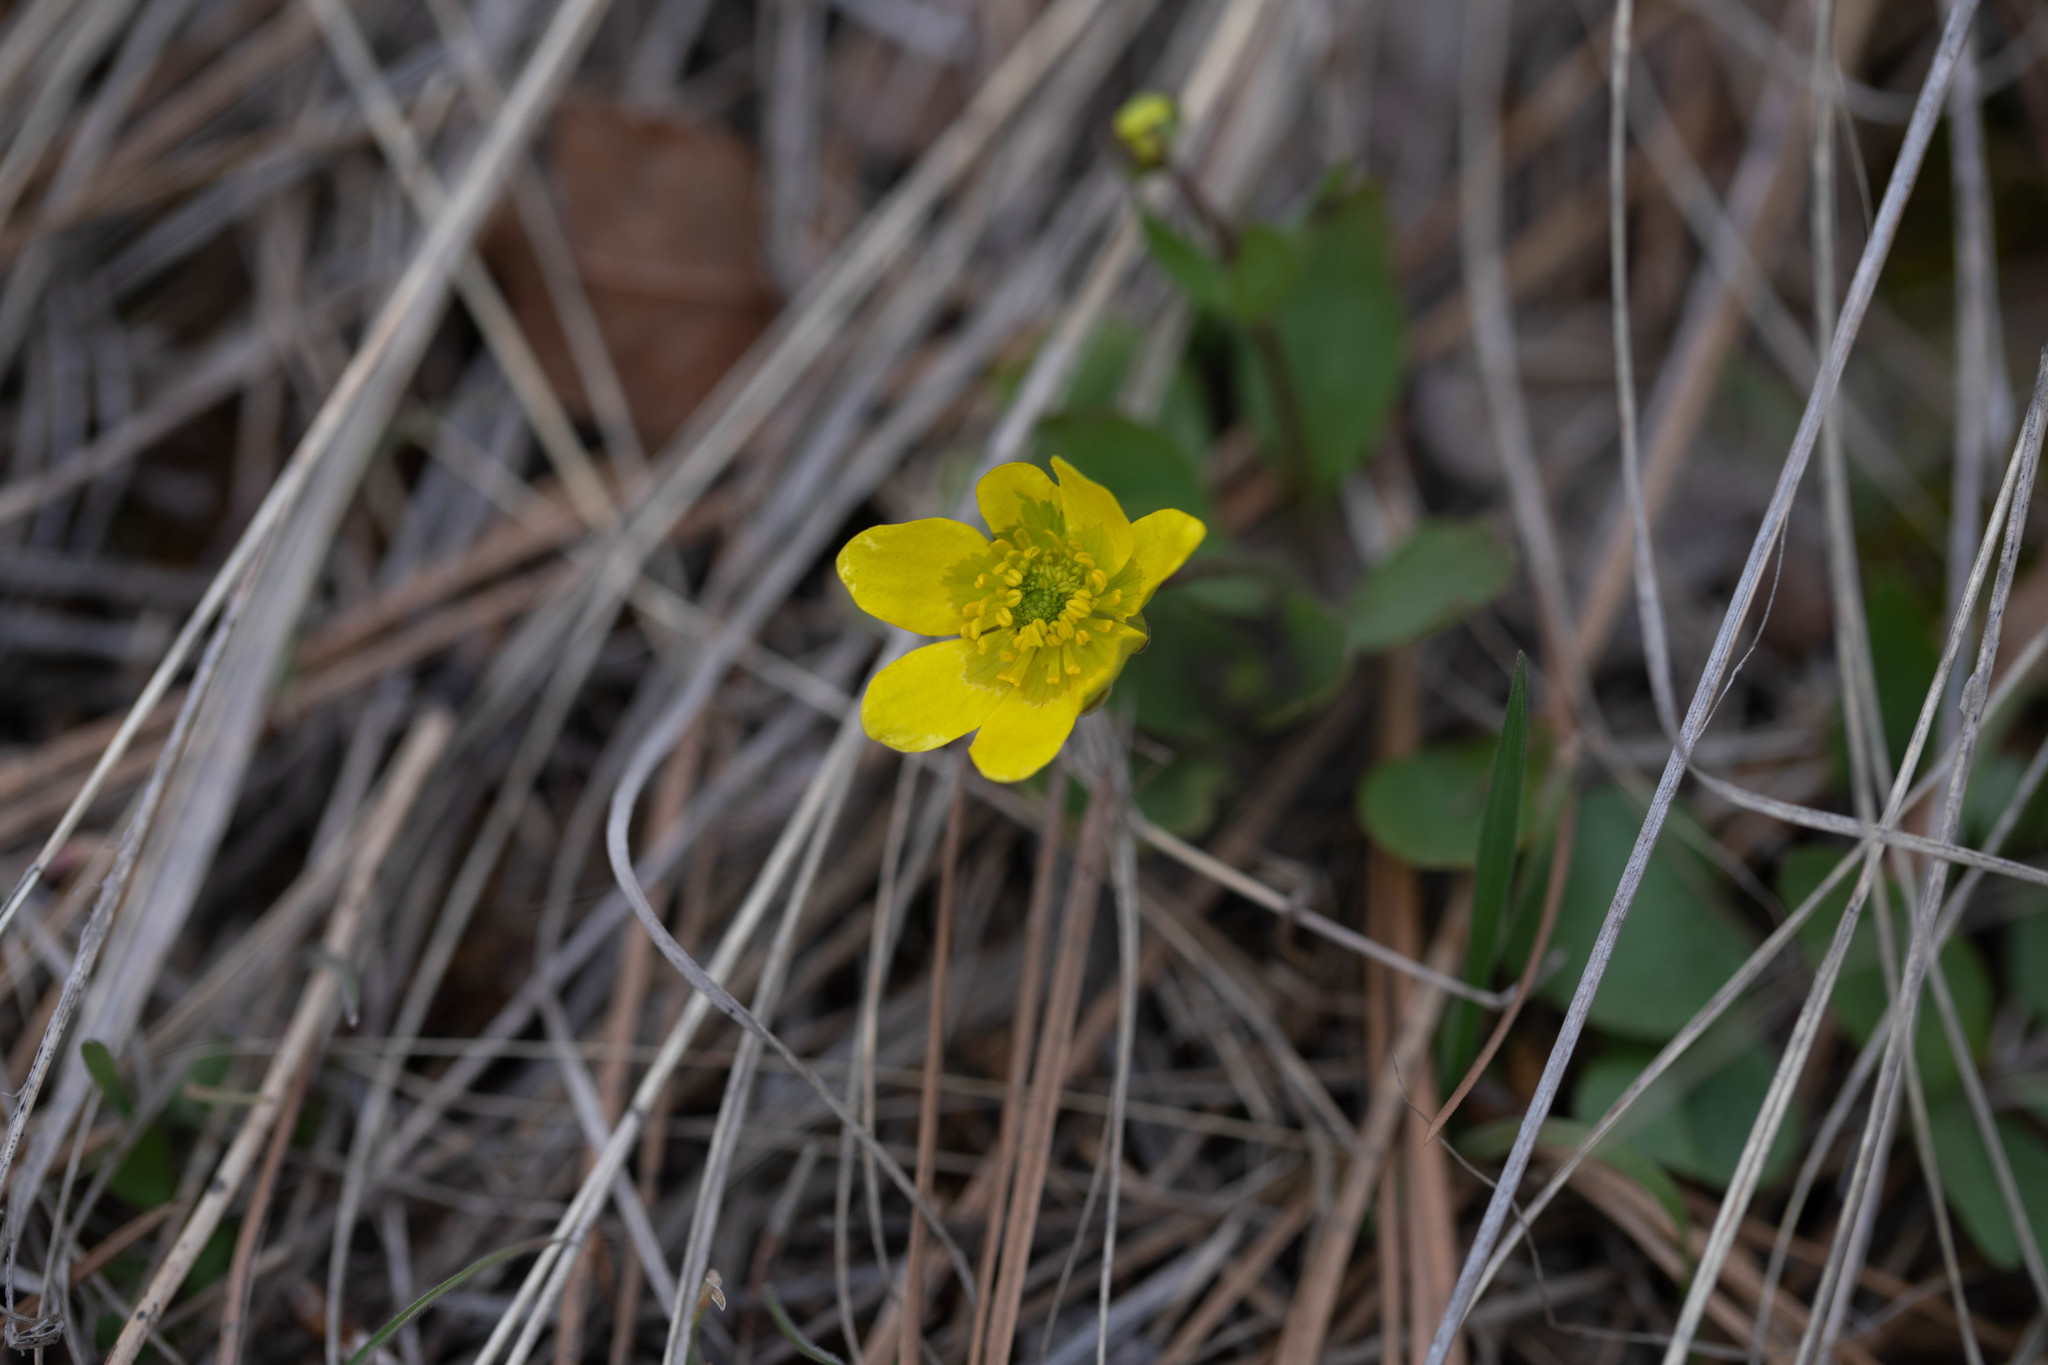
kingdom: Plantae
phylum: Tracheophyta
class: Magnoliopsida
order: Ranunculales
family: Ranunculaceae
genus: Ranunculus
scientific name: Ranunculus glaberrimus
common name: Sagebrush buttercup
